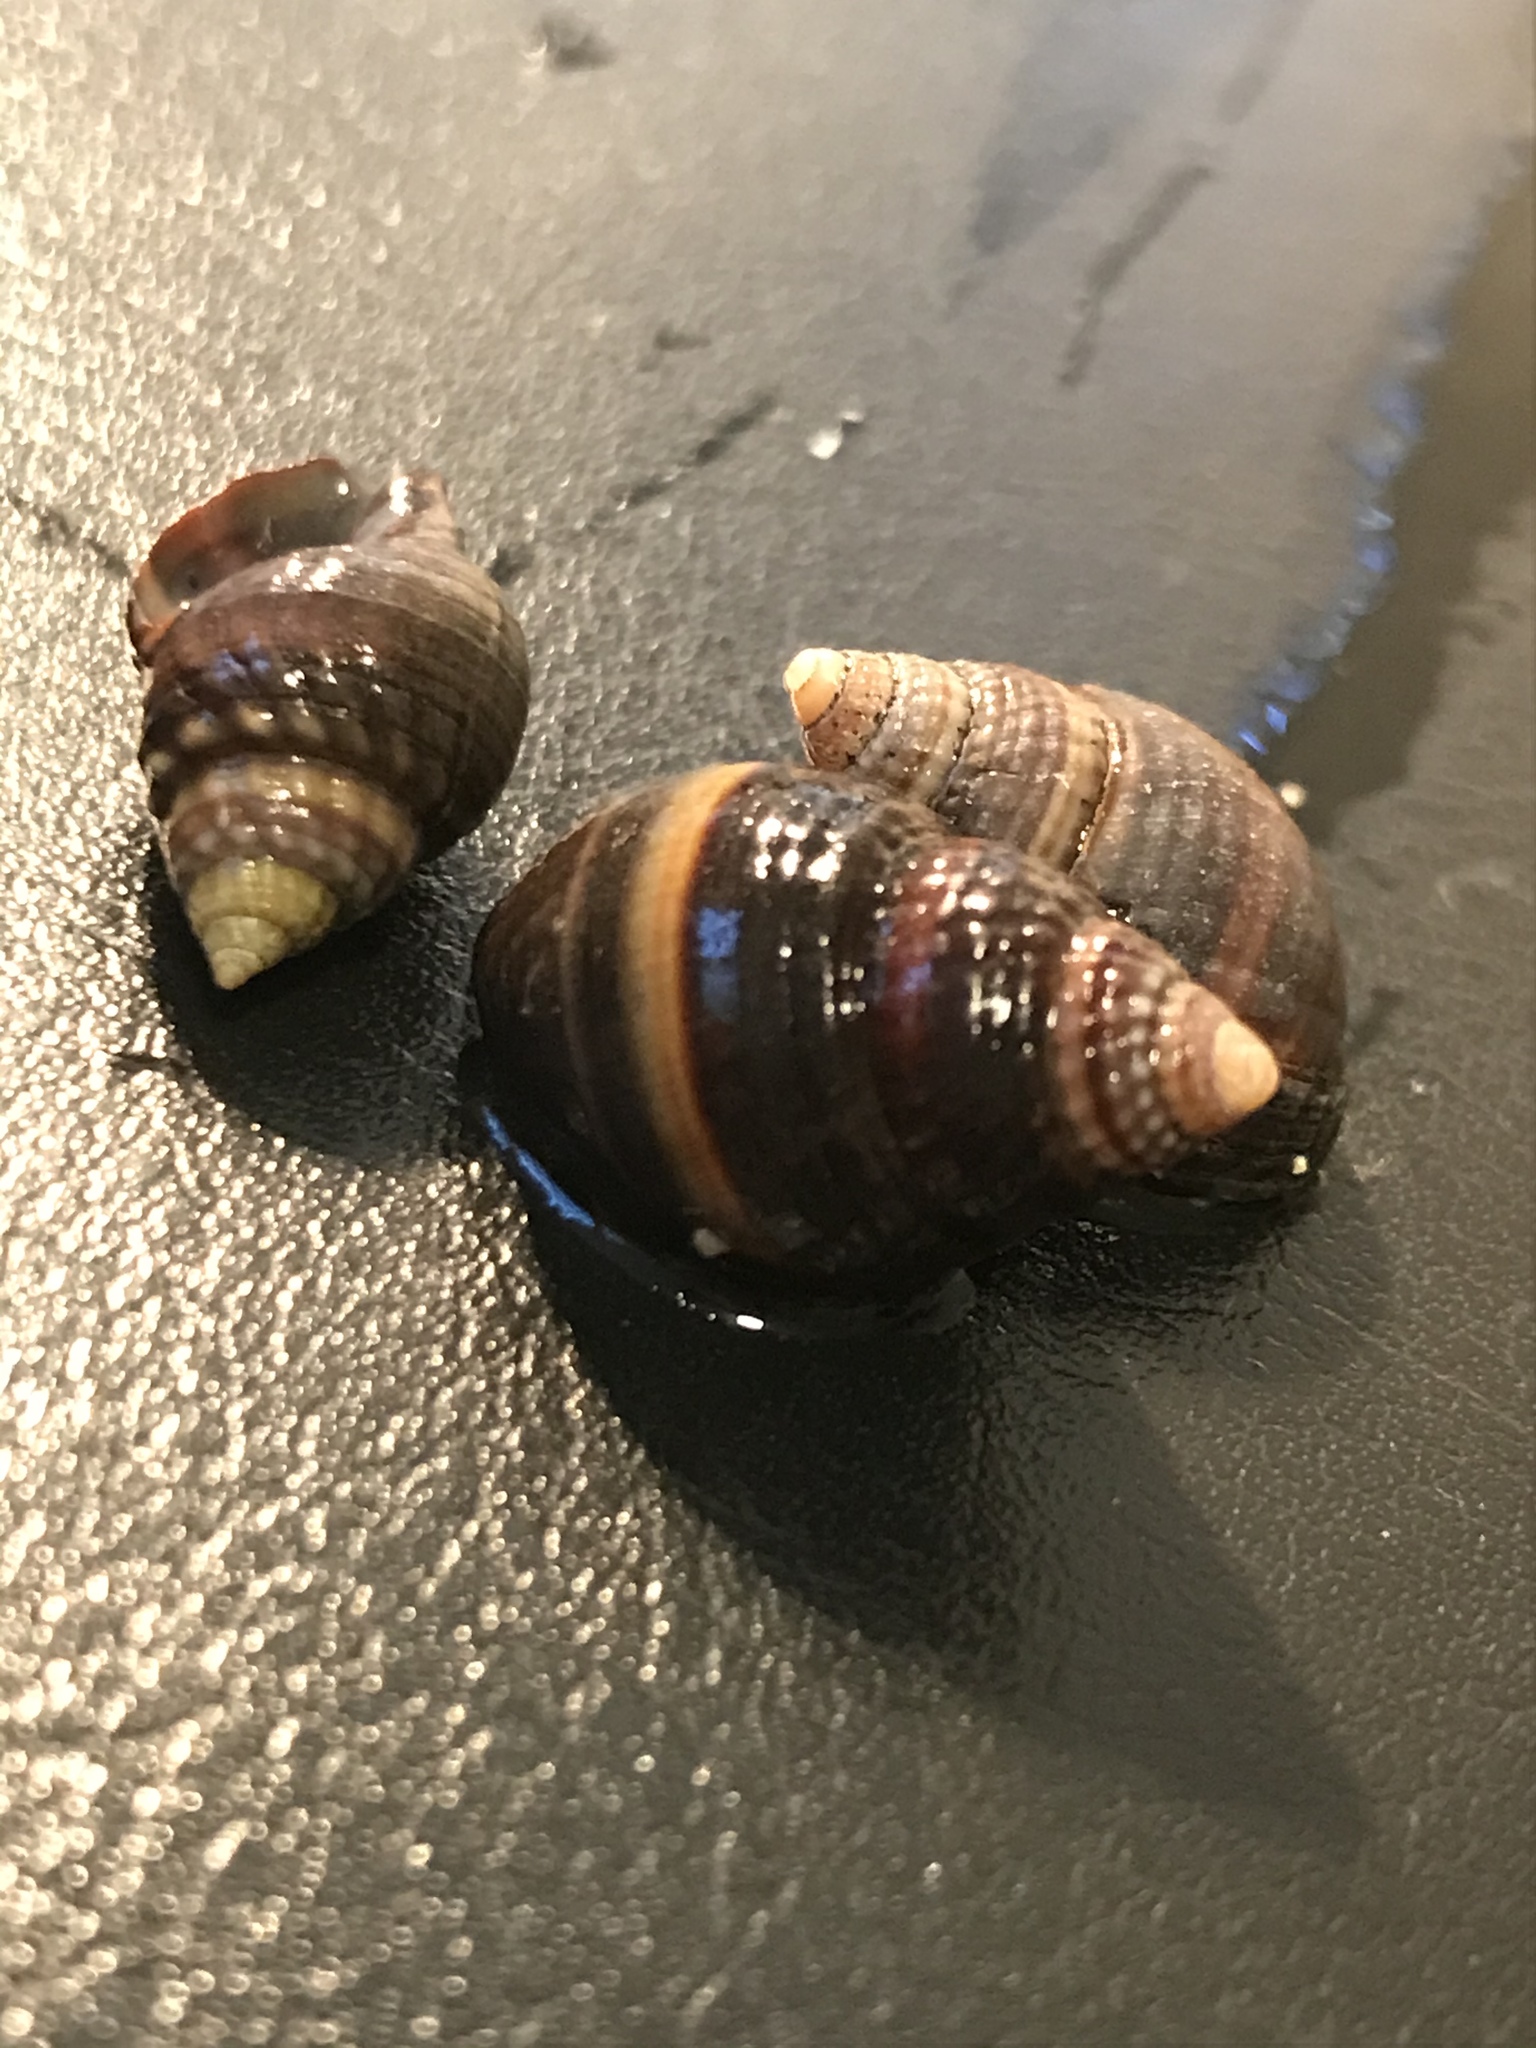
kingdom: Animalia
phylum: Mollusca
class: Gastropoda
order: Neogastropoda
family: Nassariidae
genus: Ilyanassa
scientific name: Ilyanassa obsoleta
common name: Eastern mudsnail
